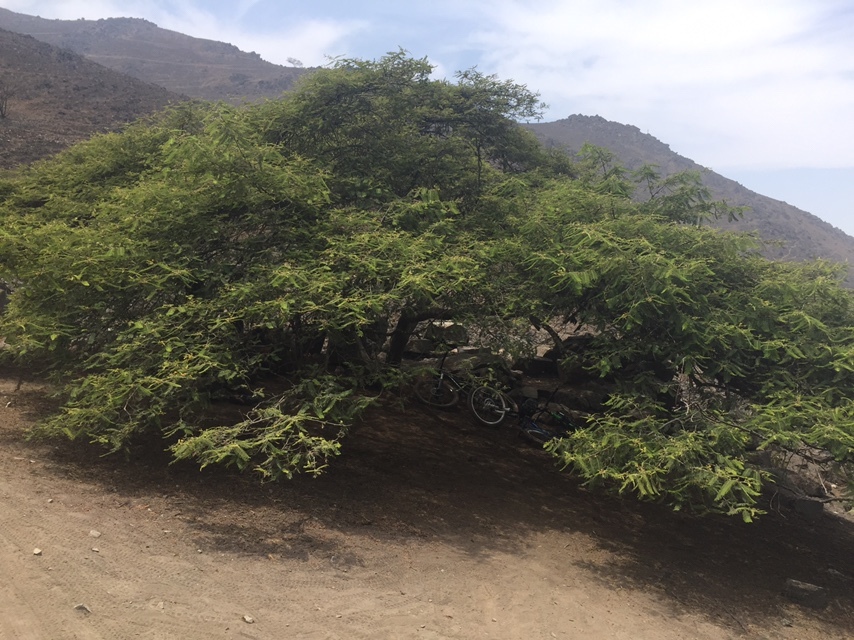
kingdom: Plantae
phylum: Tracheophyta
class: Magnoliopsida
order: Fabales
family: Fabaceae
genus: Vachellia
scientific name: Vachellia macracantha
